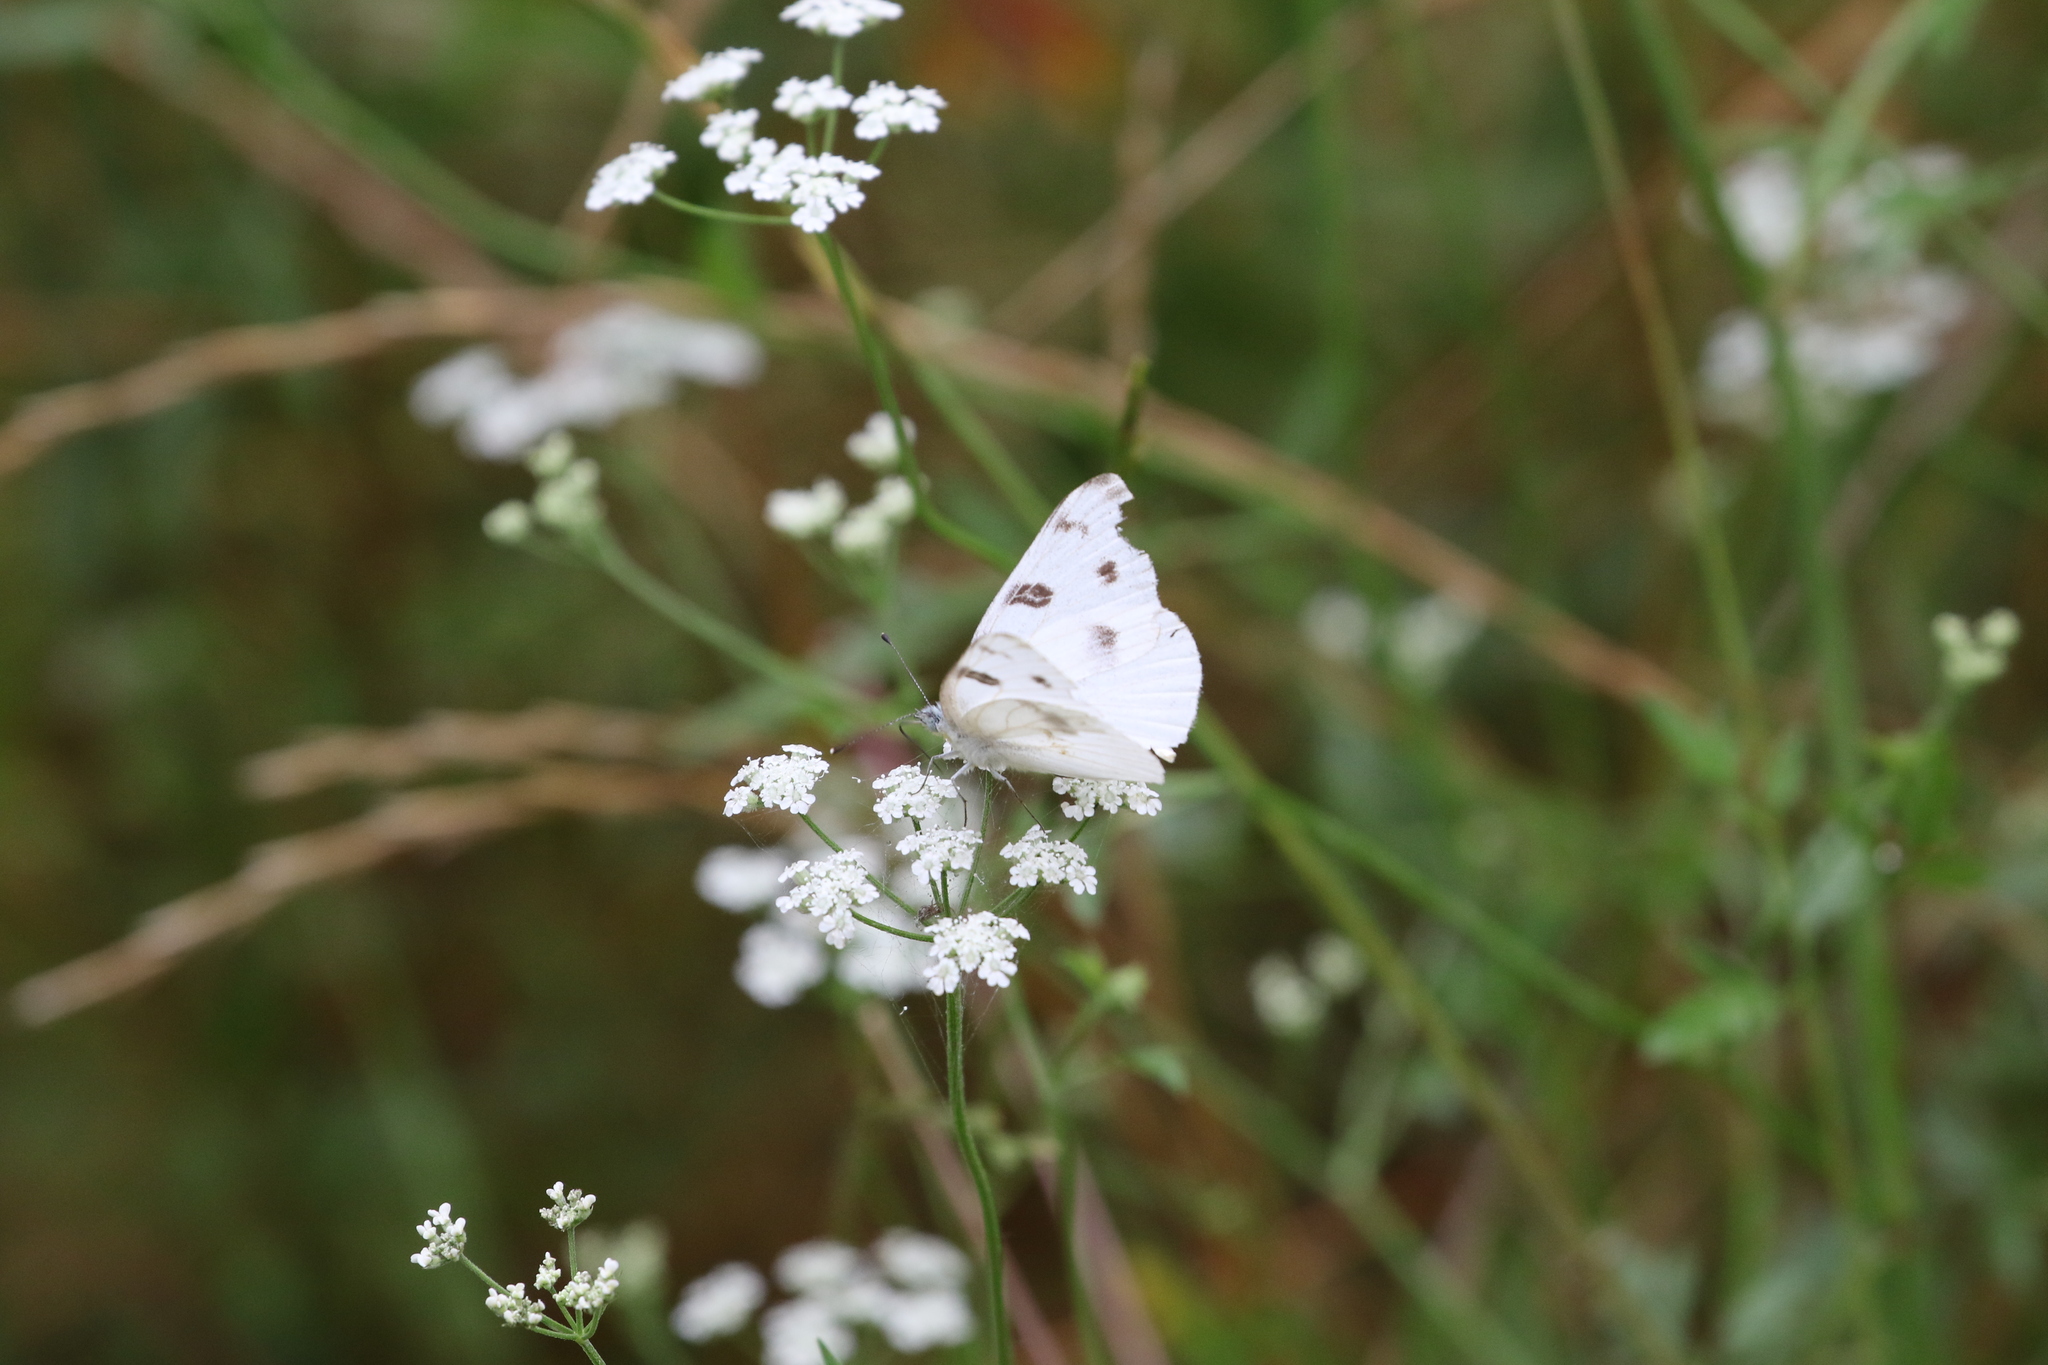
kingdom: Animalia
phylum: Arthropoda
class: Insecta
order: Lepidoptera
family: Pieridae
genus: Pontia
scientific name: Pontia protodice
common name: Checkered white
